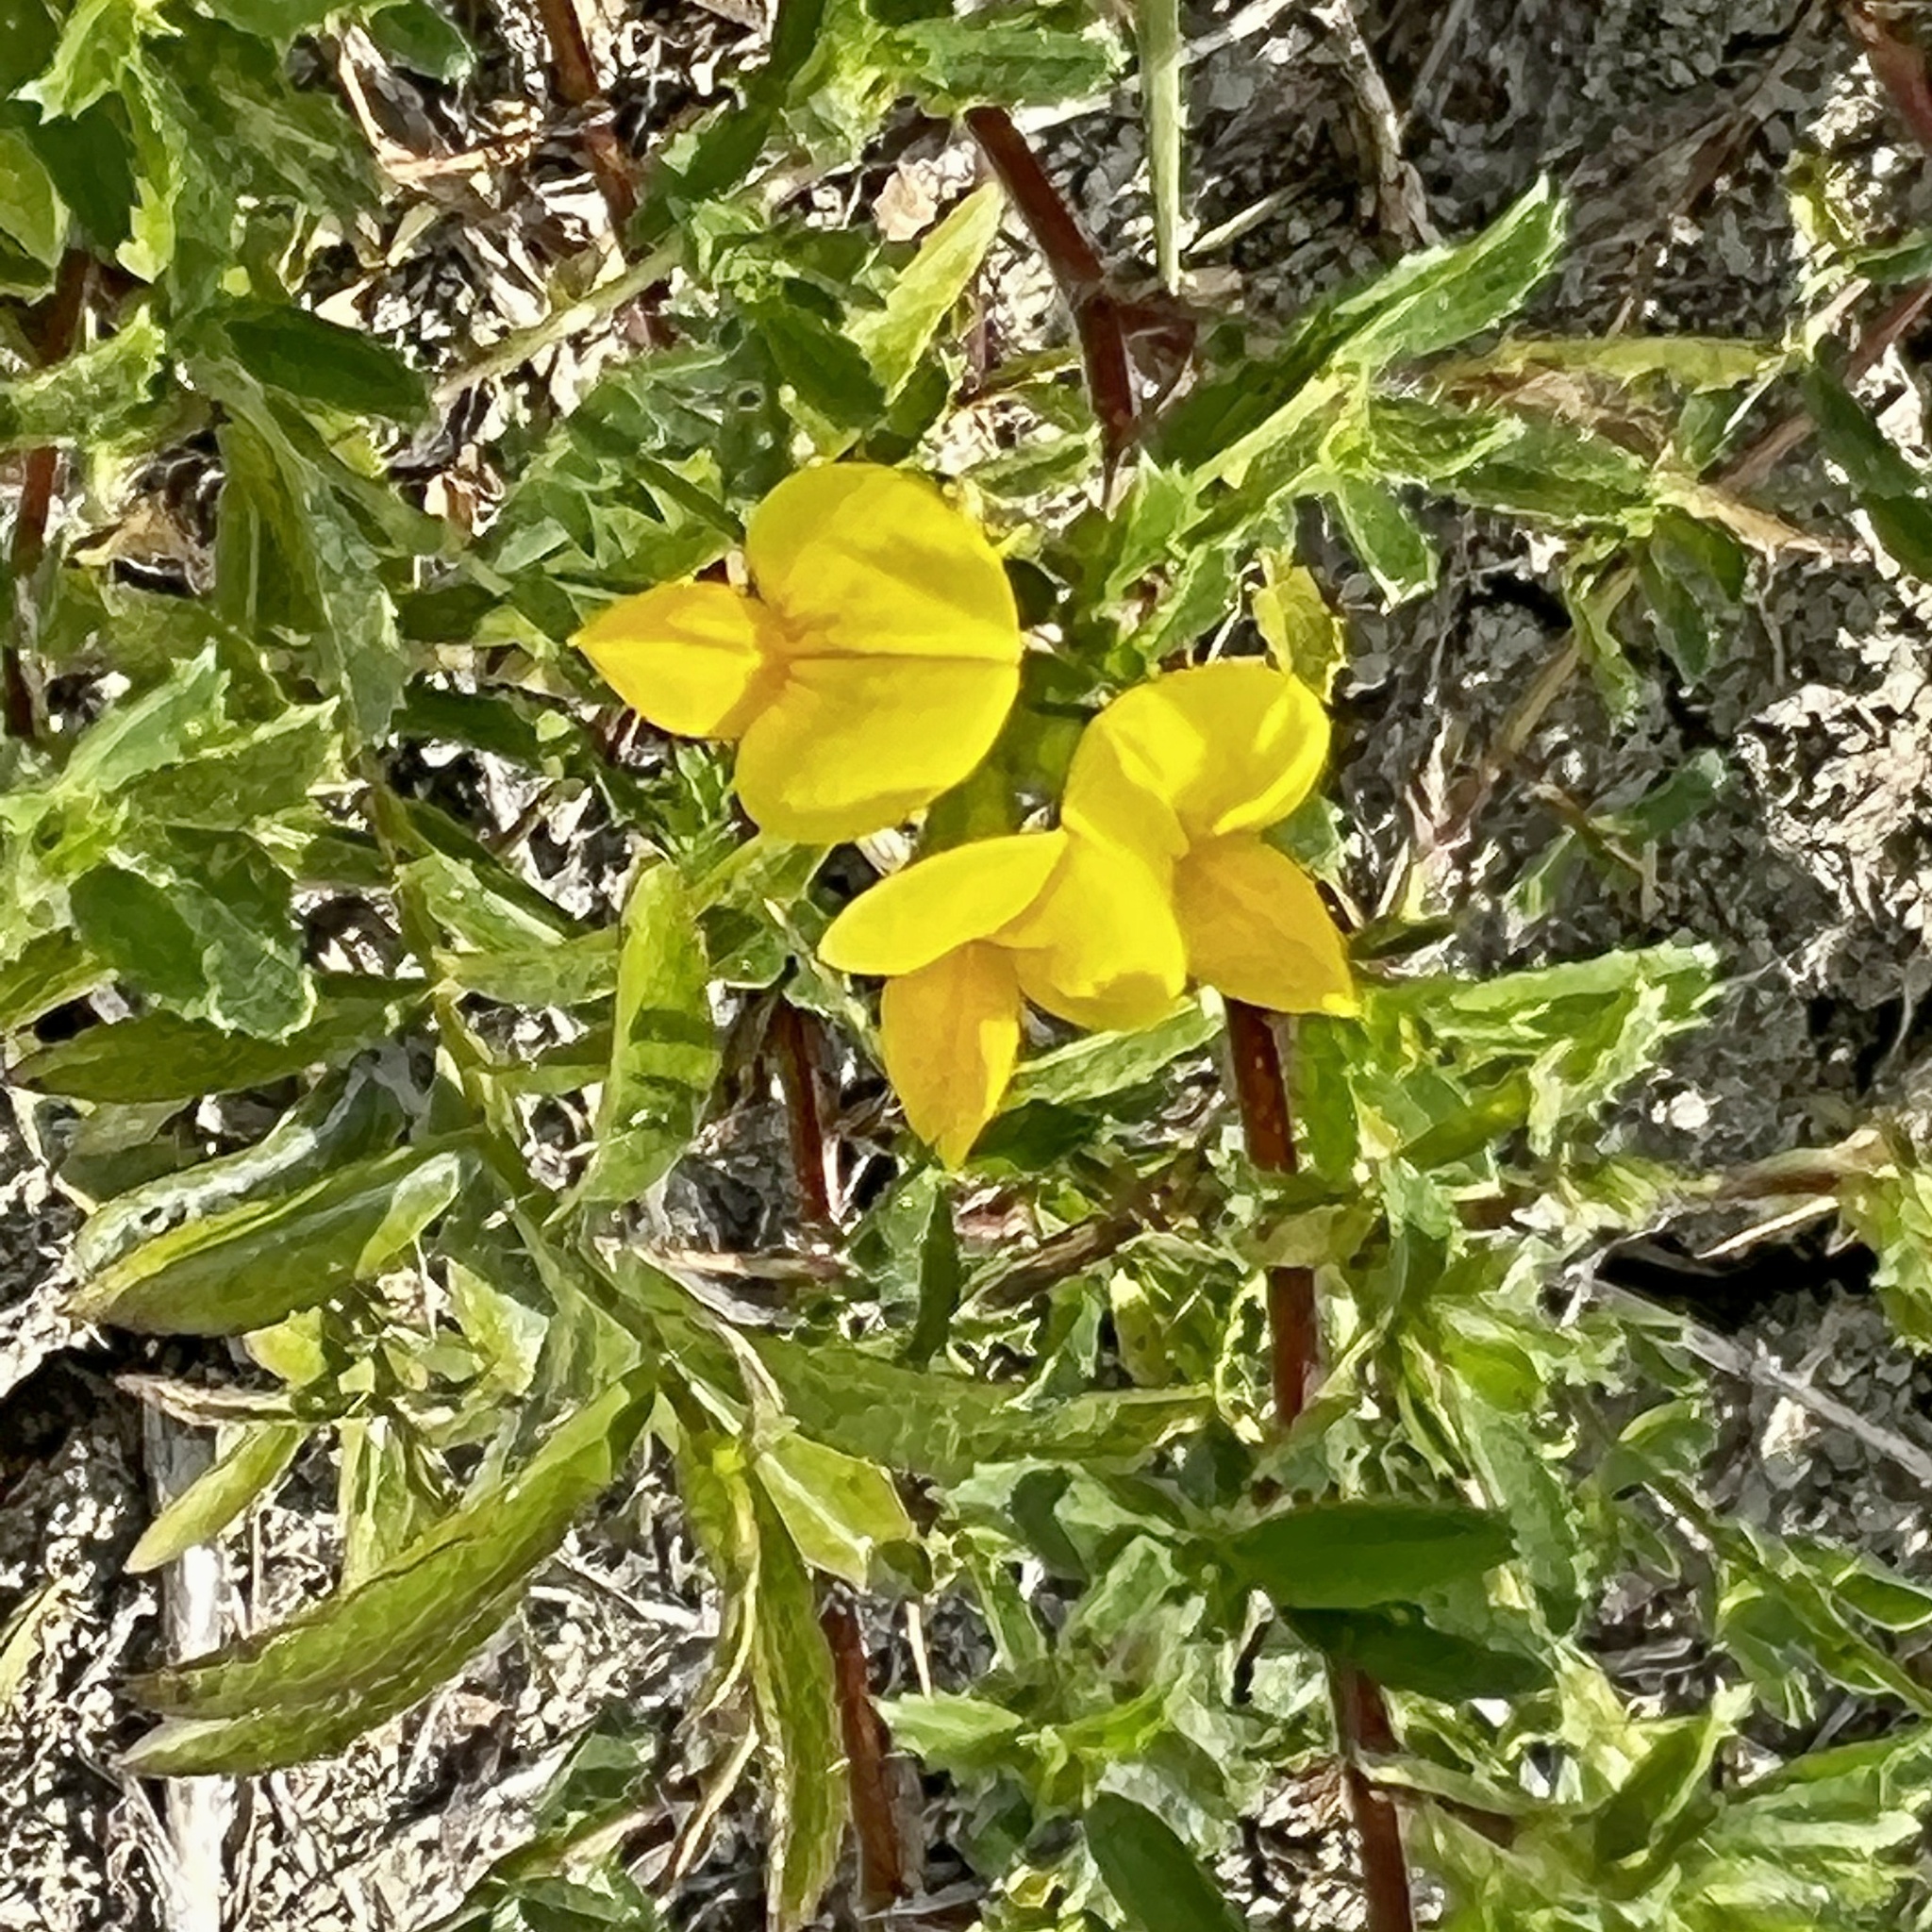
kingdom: Plantae
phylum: Tracheophyta
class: Magnoliopsida
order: Fabales
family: Fabaceae
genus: Lotus
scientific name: Lotus corniculatus
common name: Common bird's-foot-trefoil
